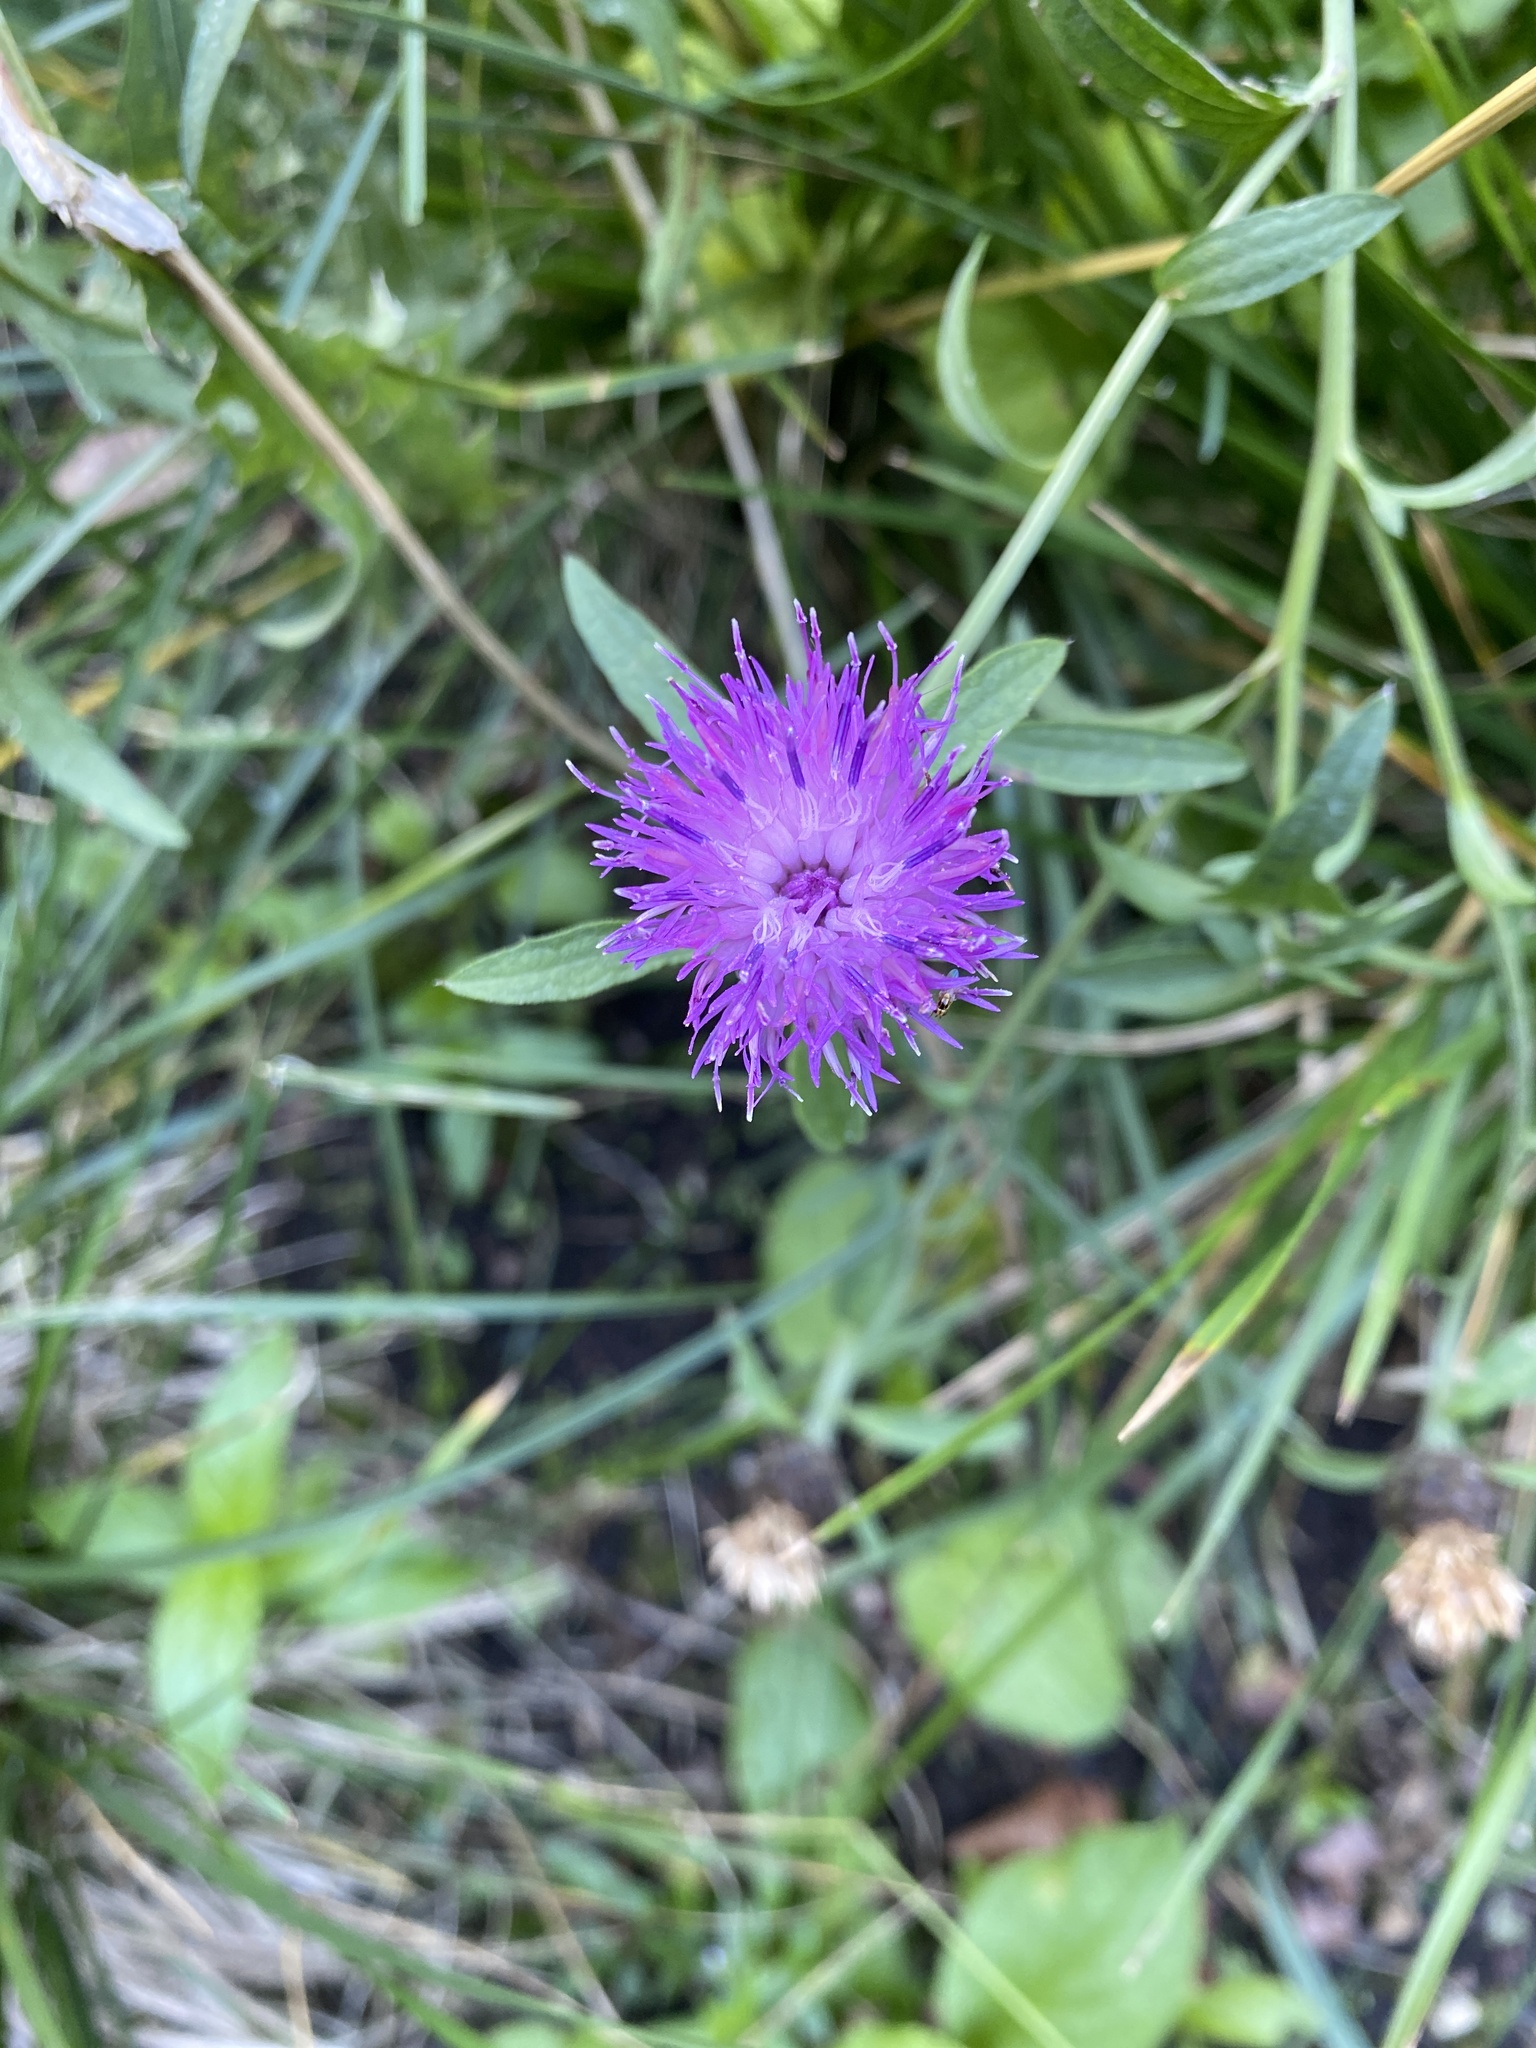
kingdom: Plantae
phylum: Tracheophyta
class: Magnoliopsida
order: Asterales
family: Asteraceae
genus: Centaurea
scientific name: Centaurea nigra
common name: Lesser knapweed
